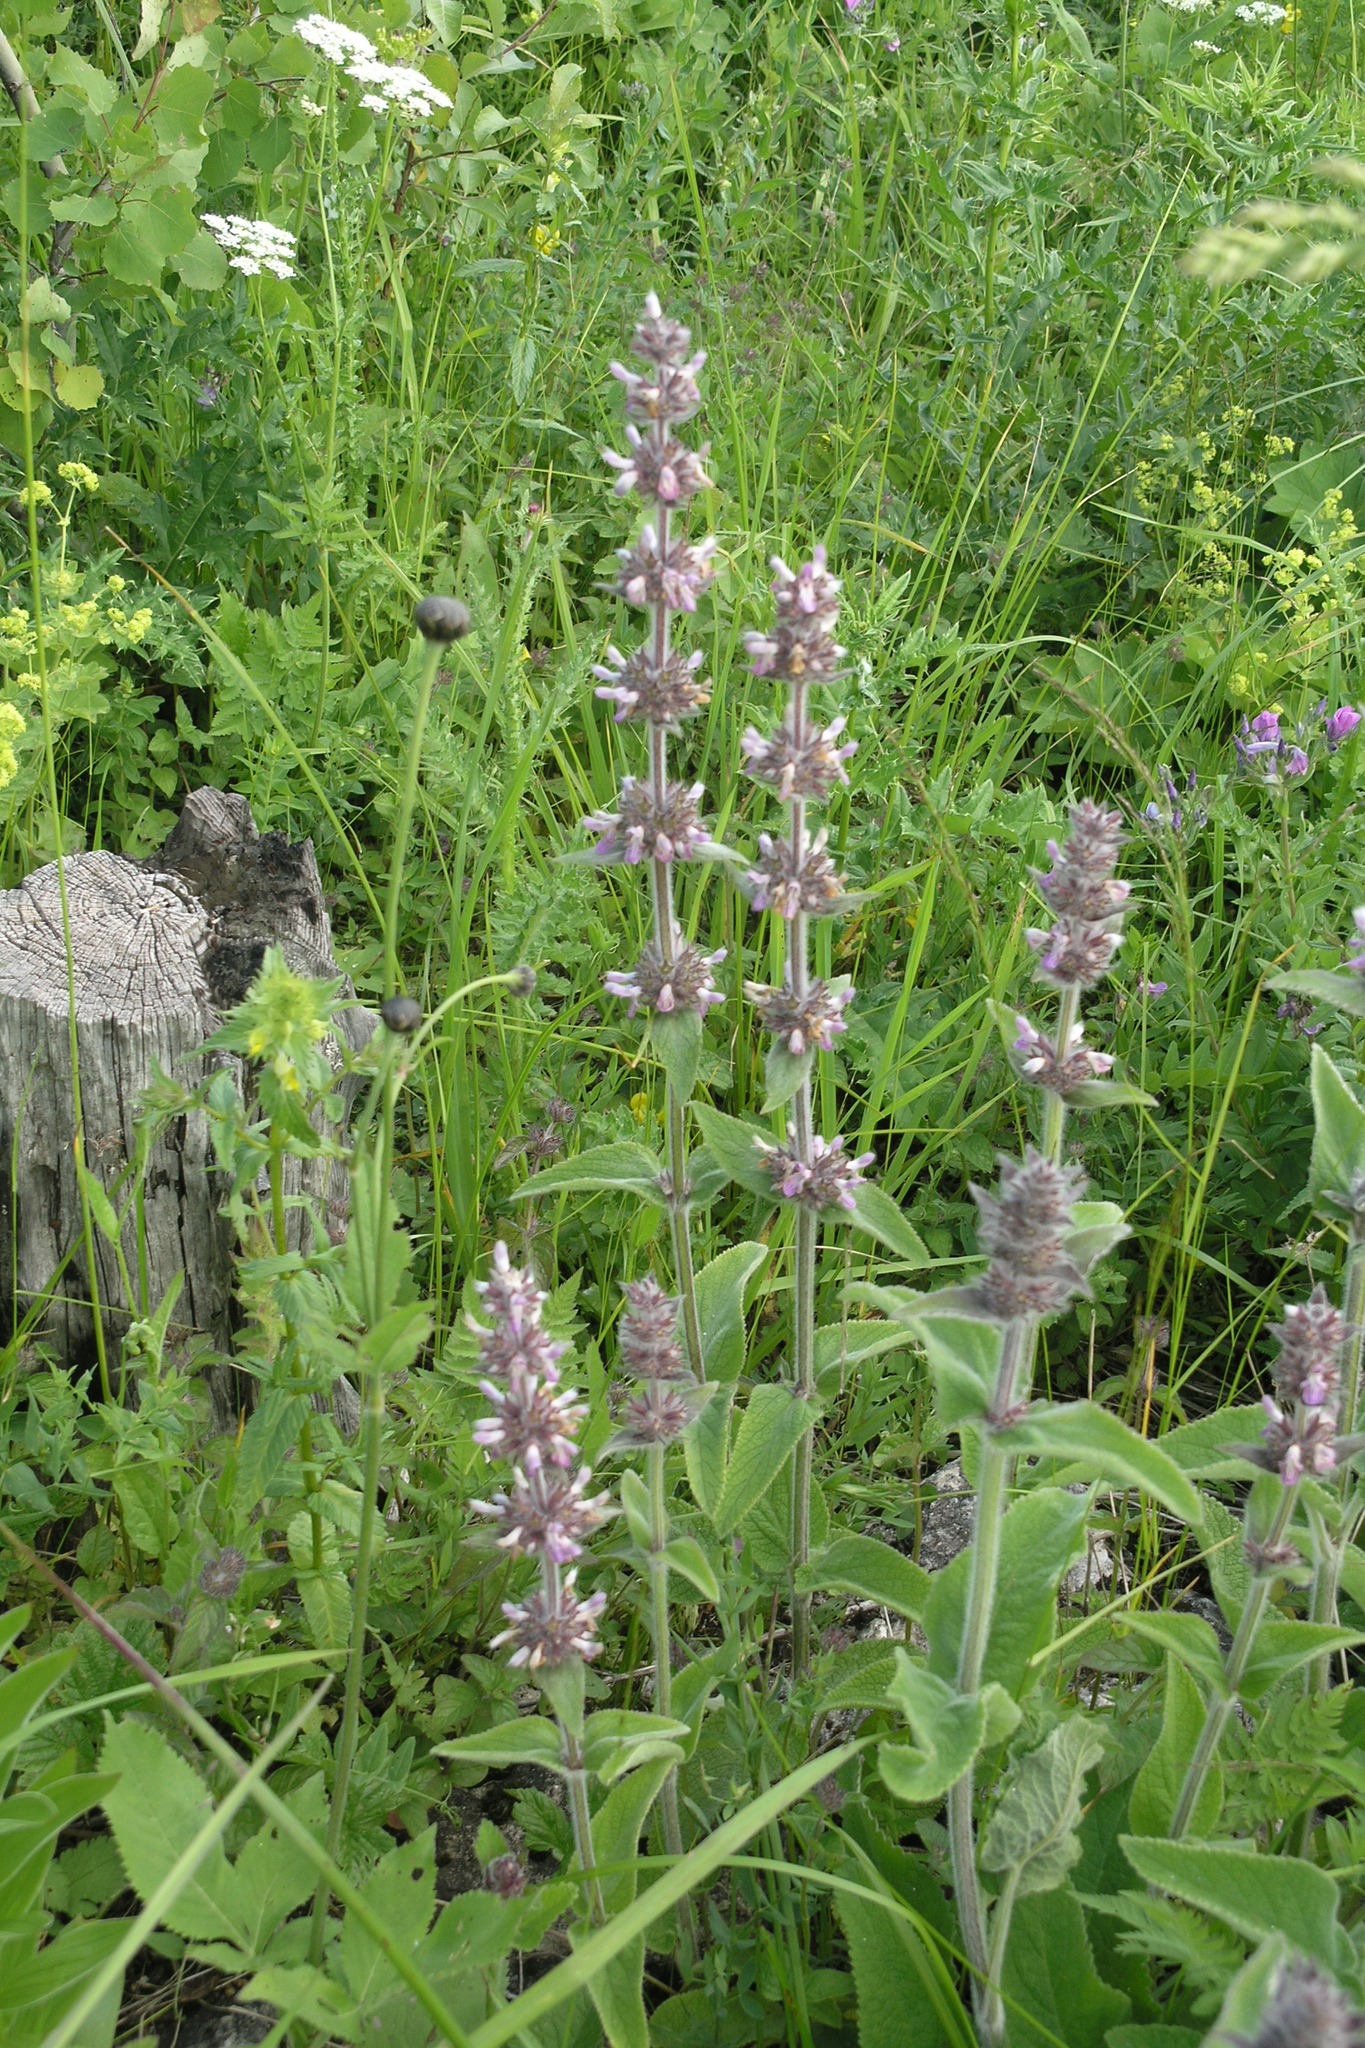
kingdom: Plantae
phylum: Tracheophyta
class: Magnoliopsida
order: Lamiales
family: Lamiaceae
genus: Stachys
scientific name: Stachys balansae
